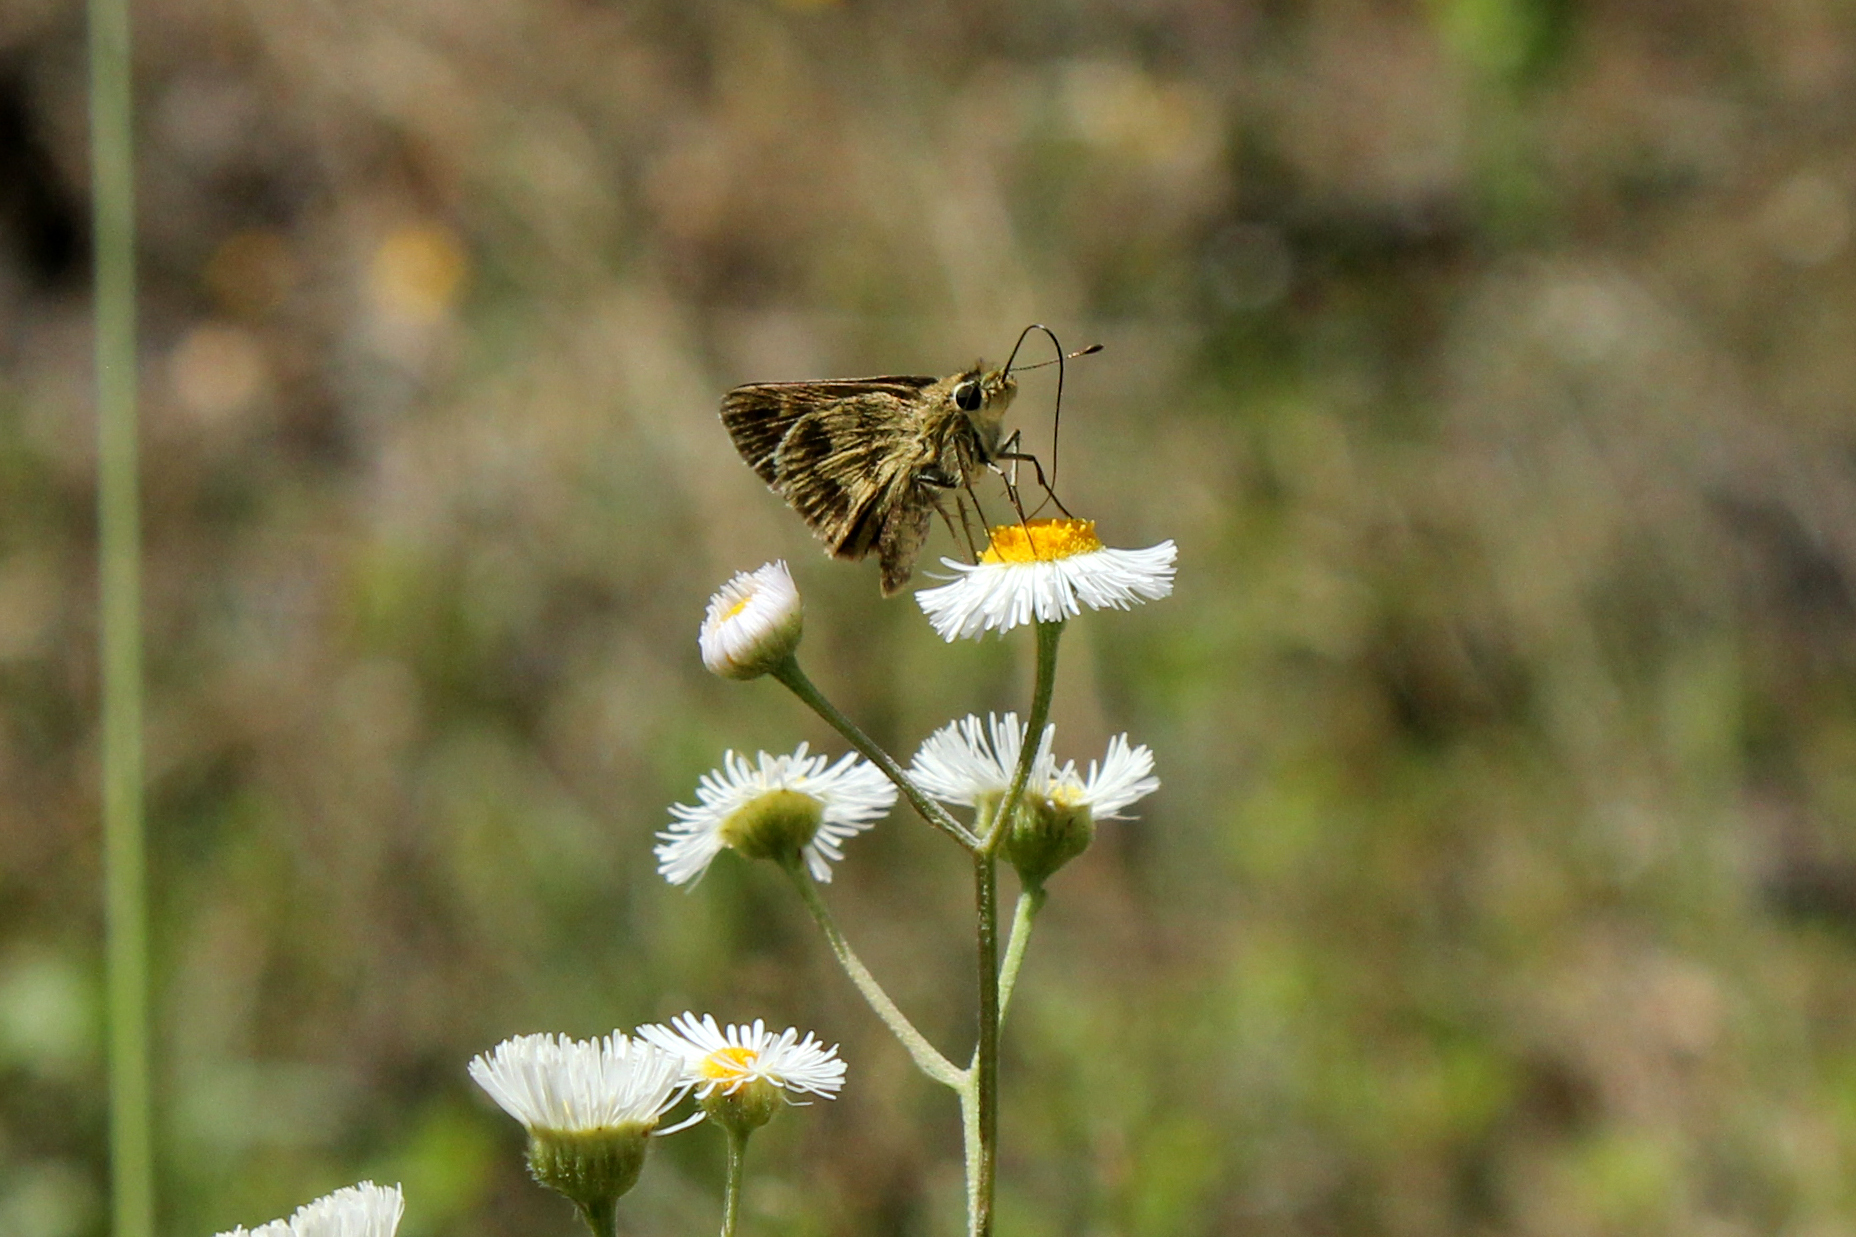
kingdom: Animalia
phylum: Arthropoda
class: Insecta
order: Lepidoptera
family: Hesperiidae
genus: Polites
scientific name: Polites vibex
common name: Whirlabout
